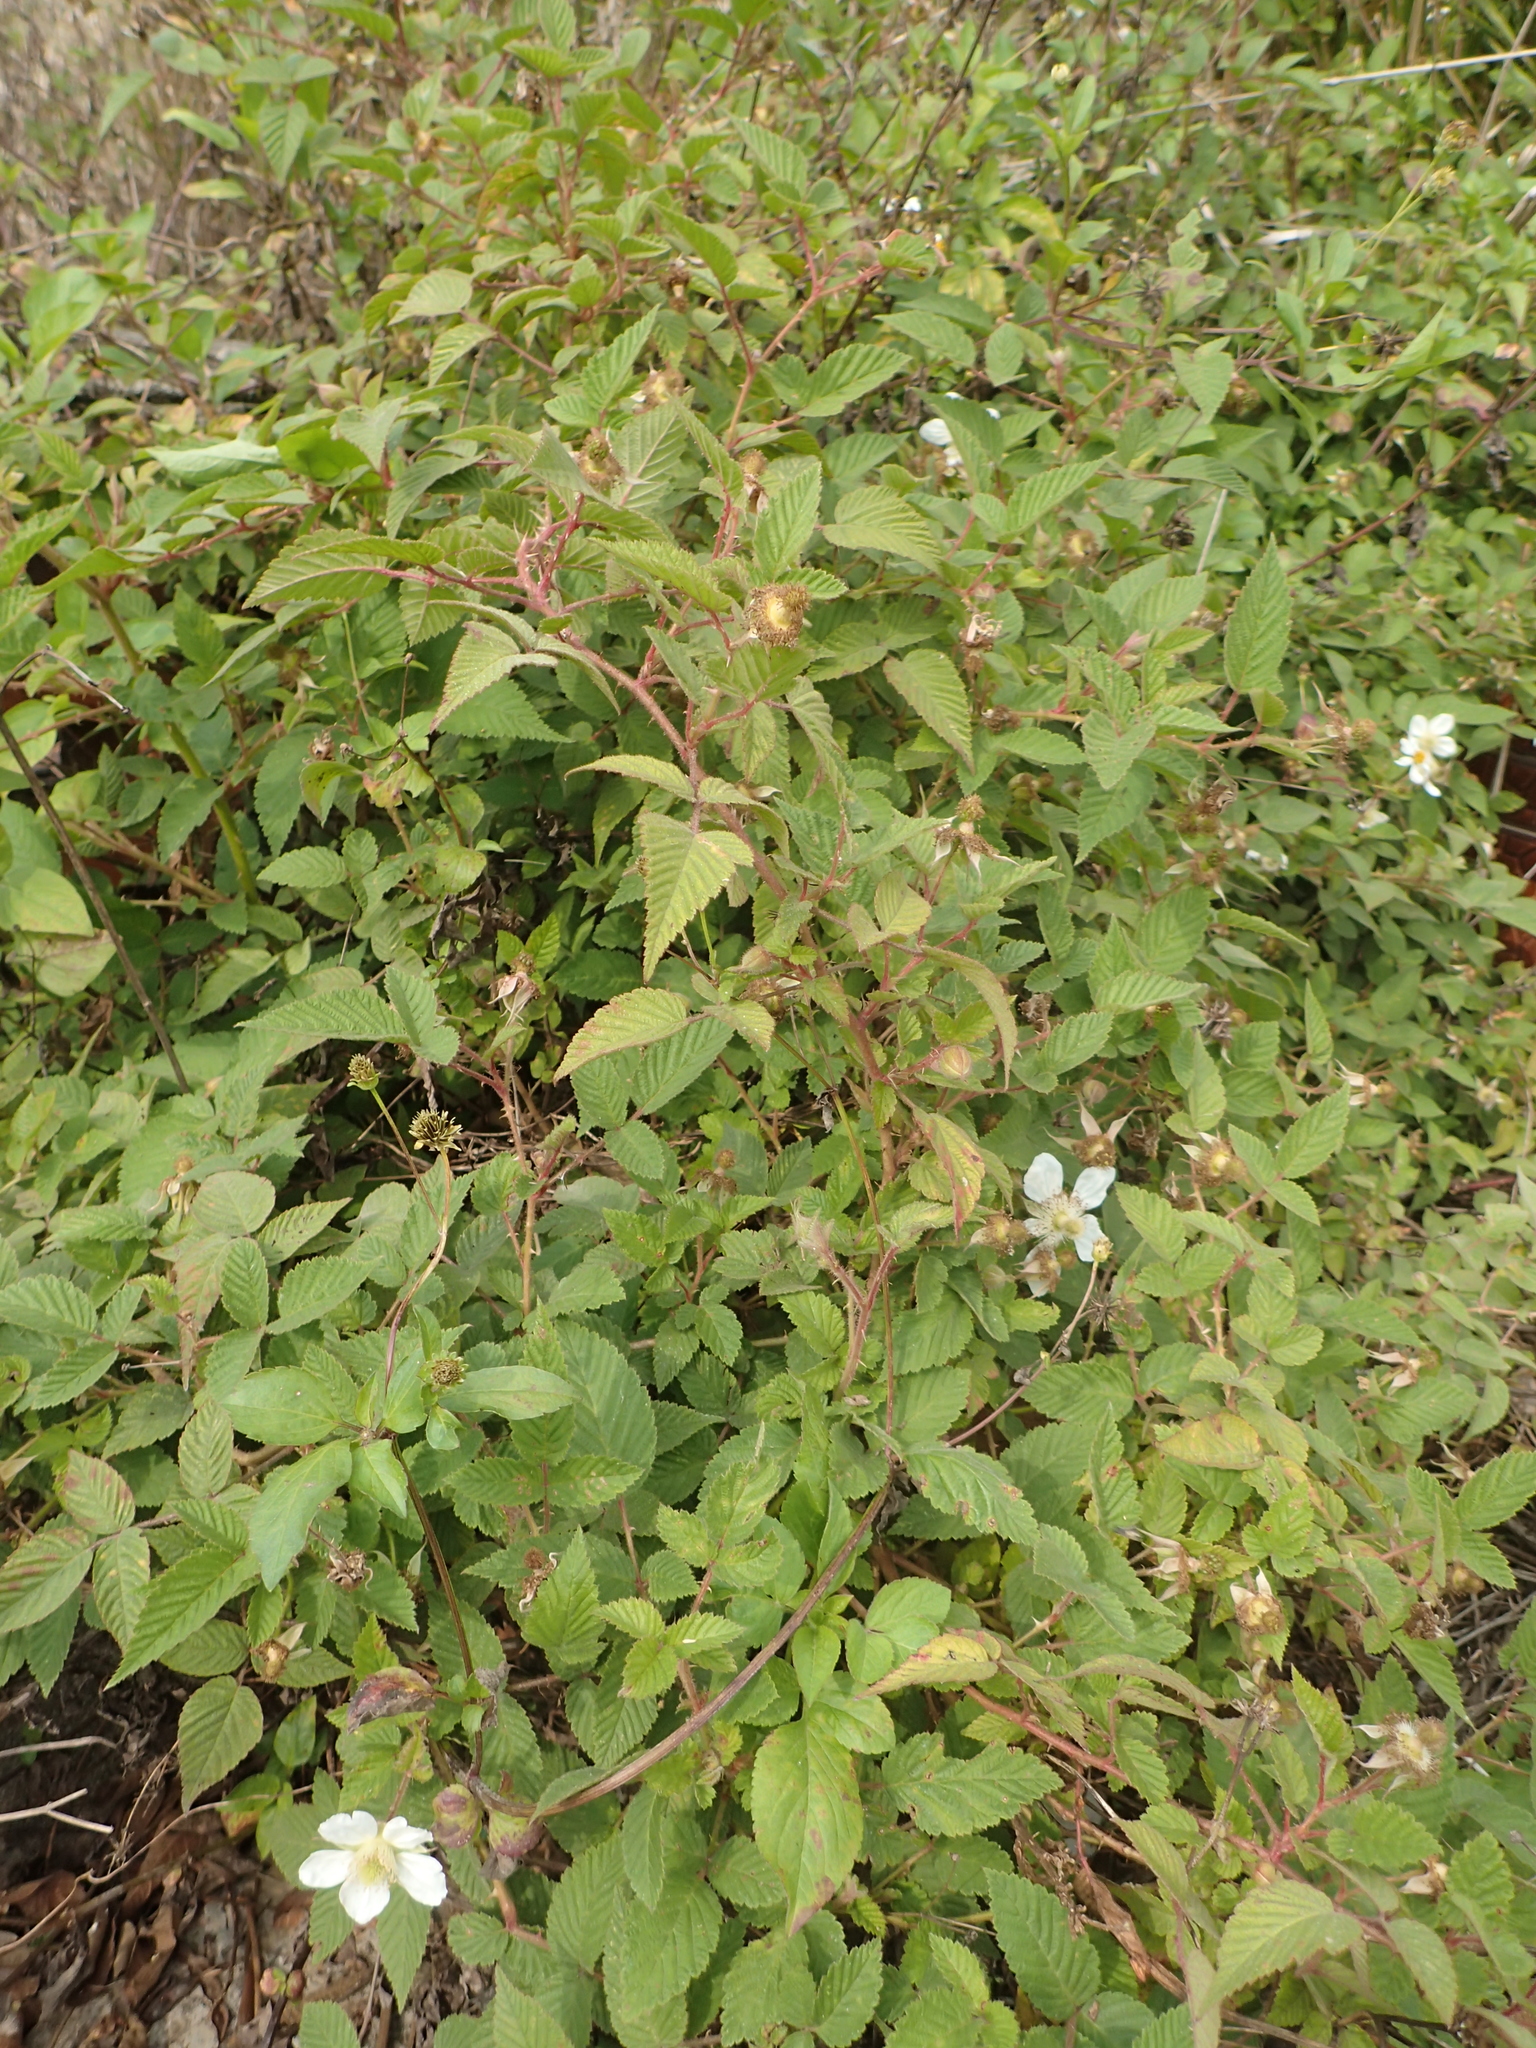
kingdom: Plantae
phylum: Tracheophyta
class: Magnoliopsida
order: Rosales
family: Rosaceae
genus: Rubus
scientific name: Rubus croceacanthus
